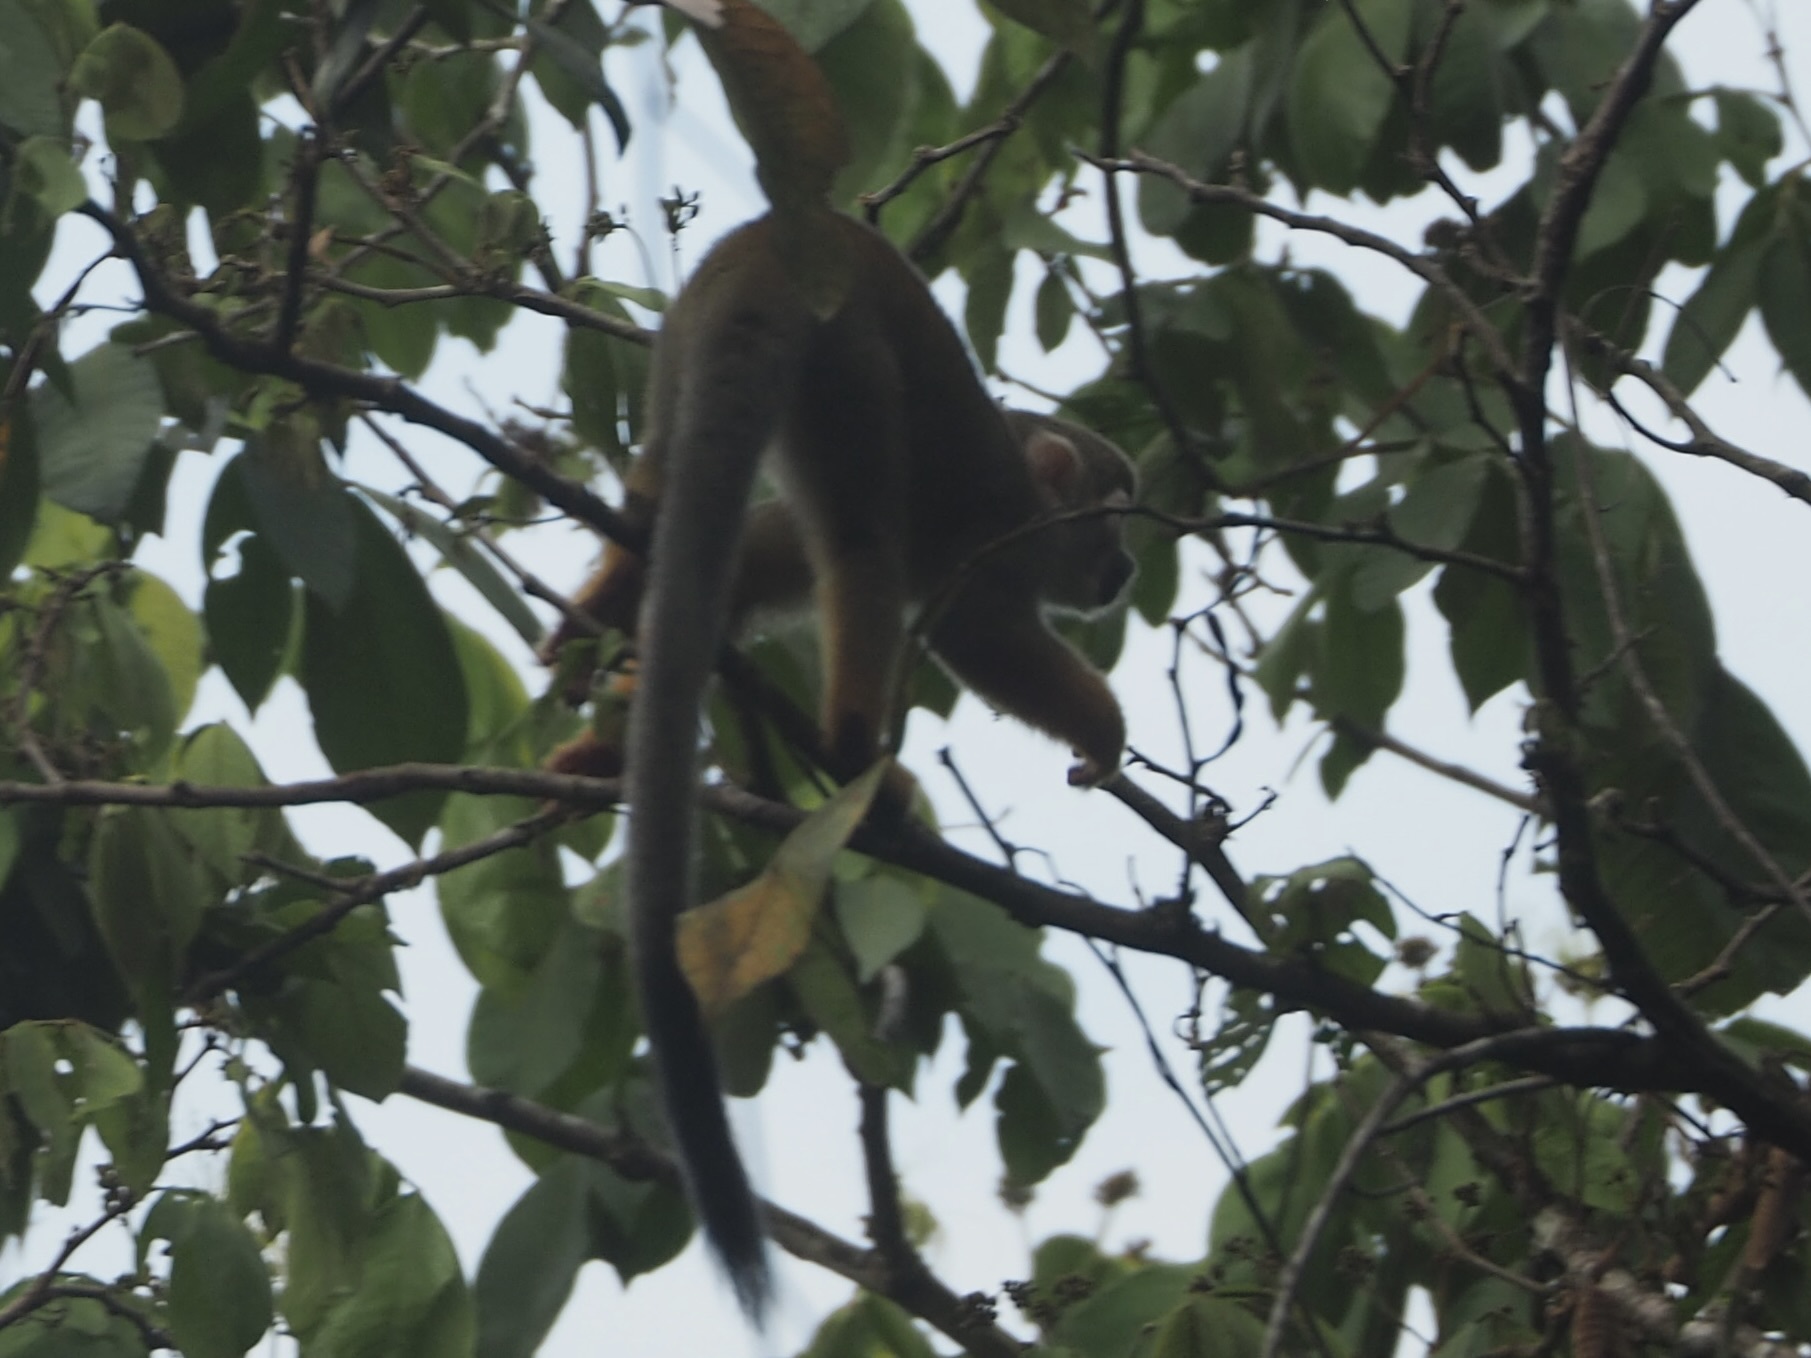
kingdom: Animalia
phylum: Chordata
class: Mammalia
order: Primates
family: Cebidae
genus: Saimiri
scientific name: Saimiri sciureus
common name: Common squirrel monkey
